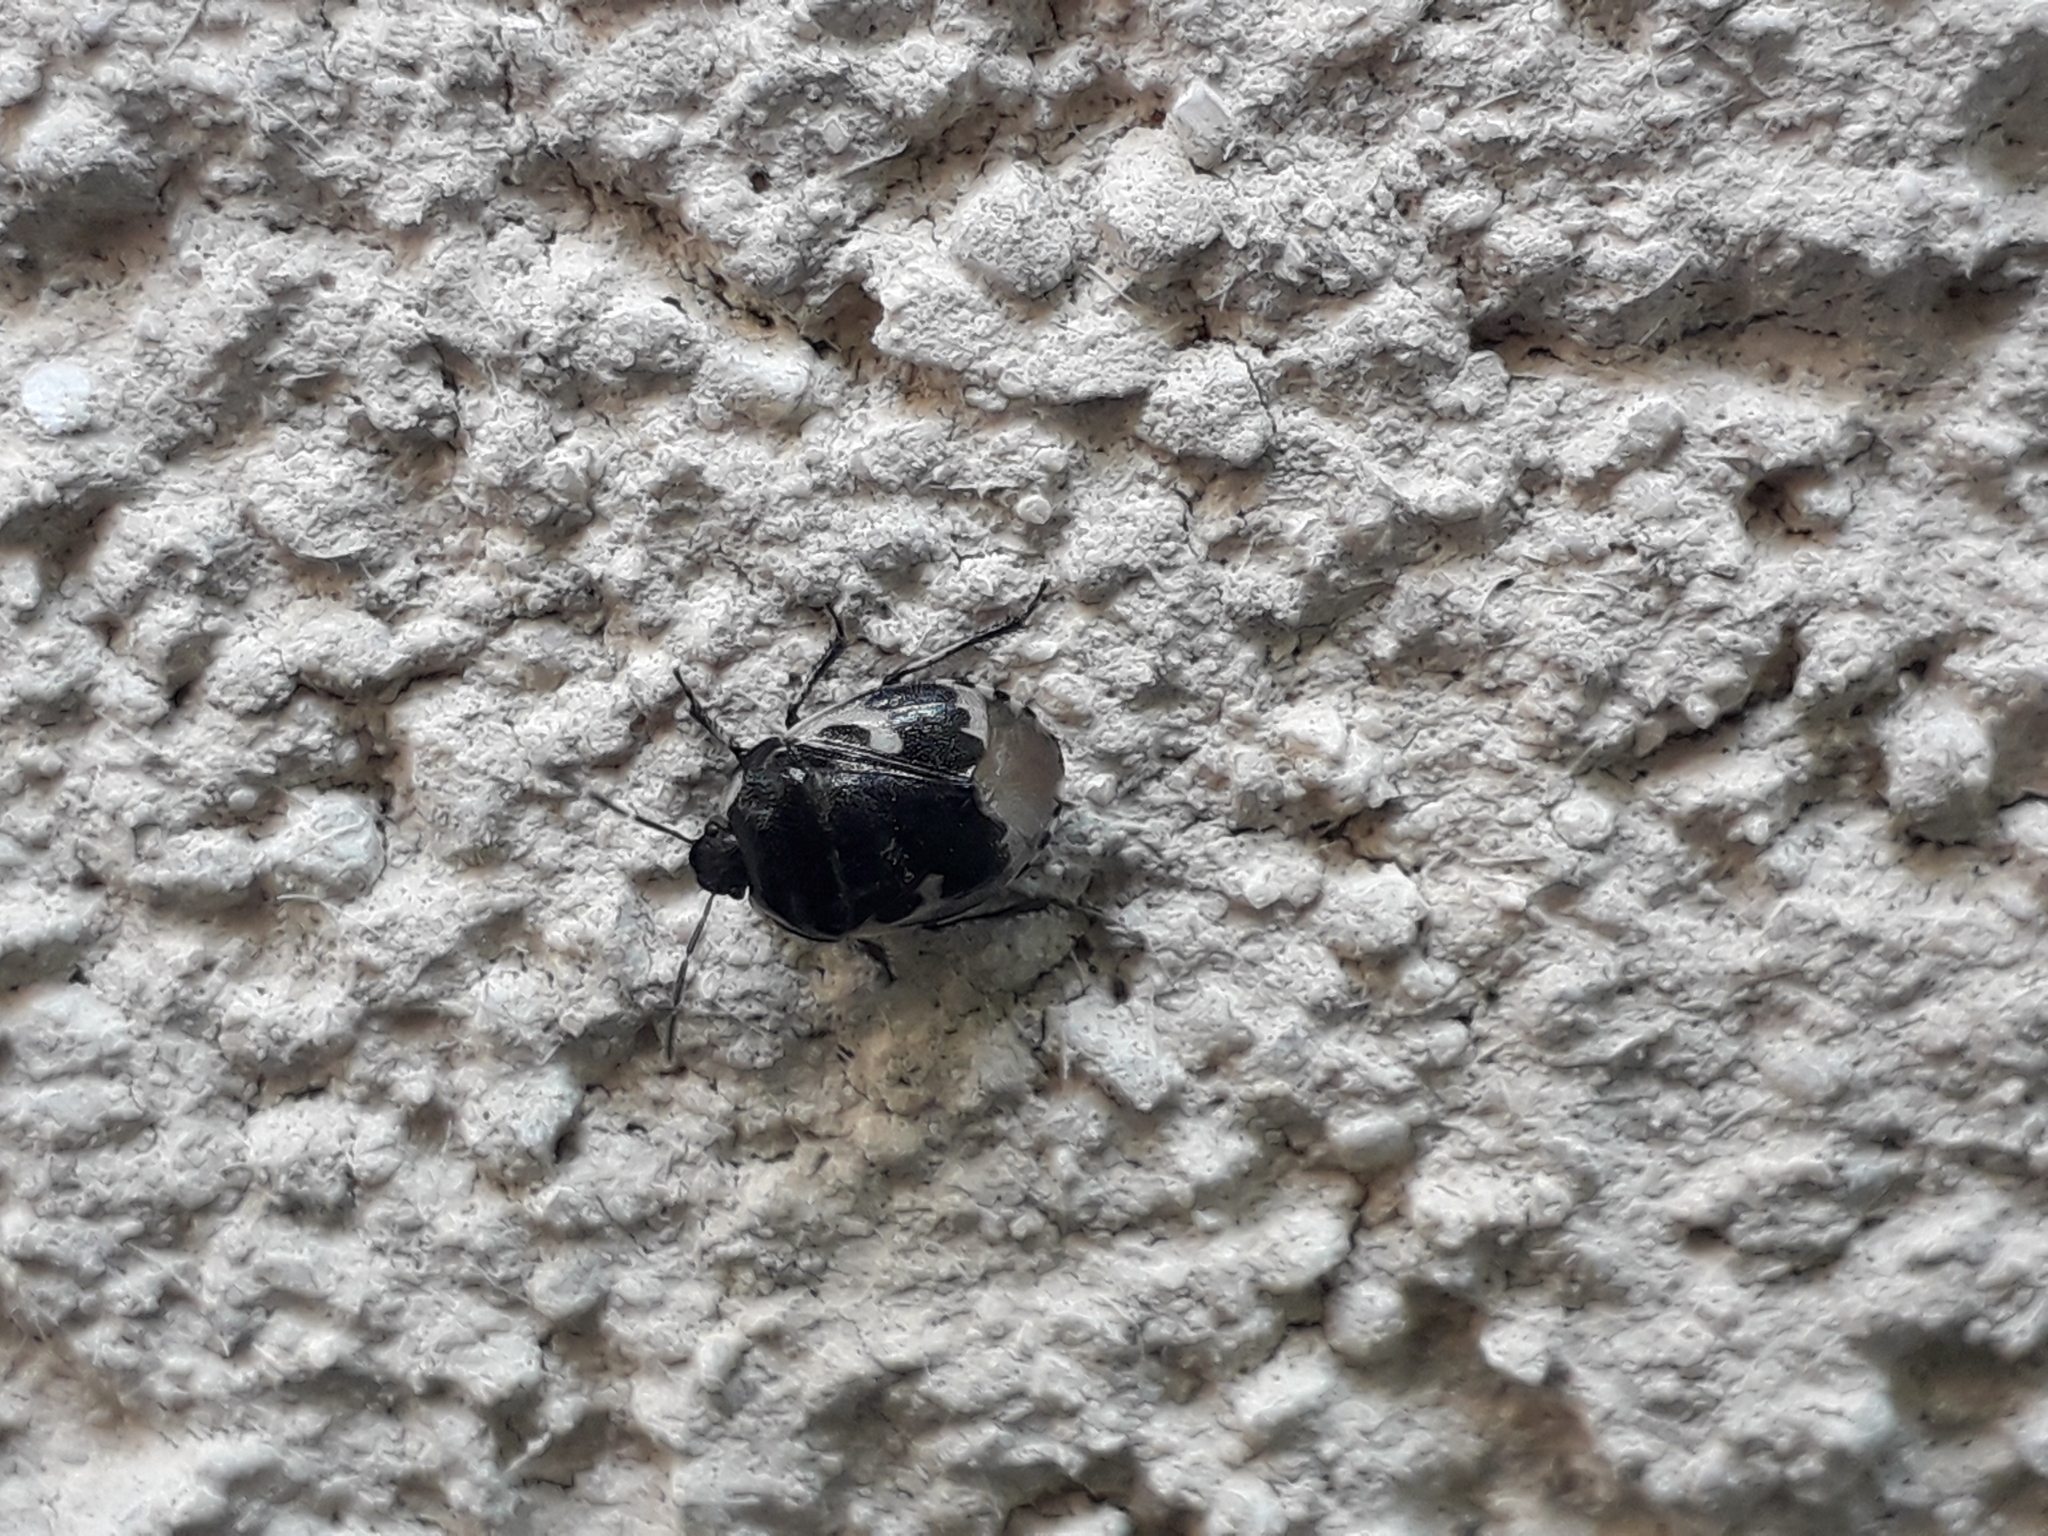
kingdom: Animalia
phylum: Arthropoda
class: Insecta
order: Hemiptera
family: Cydnidae
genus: Tritomegas
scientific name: Tritomegas bicolor
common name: Pied shieldbug
